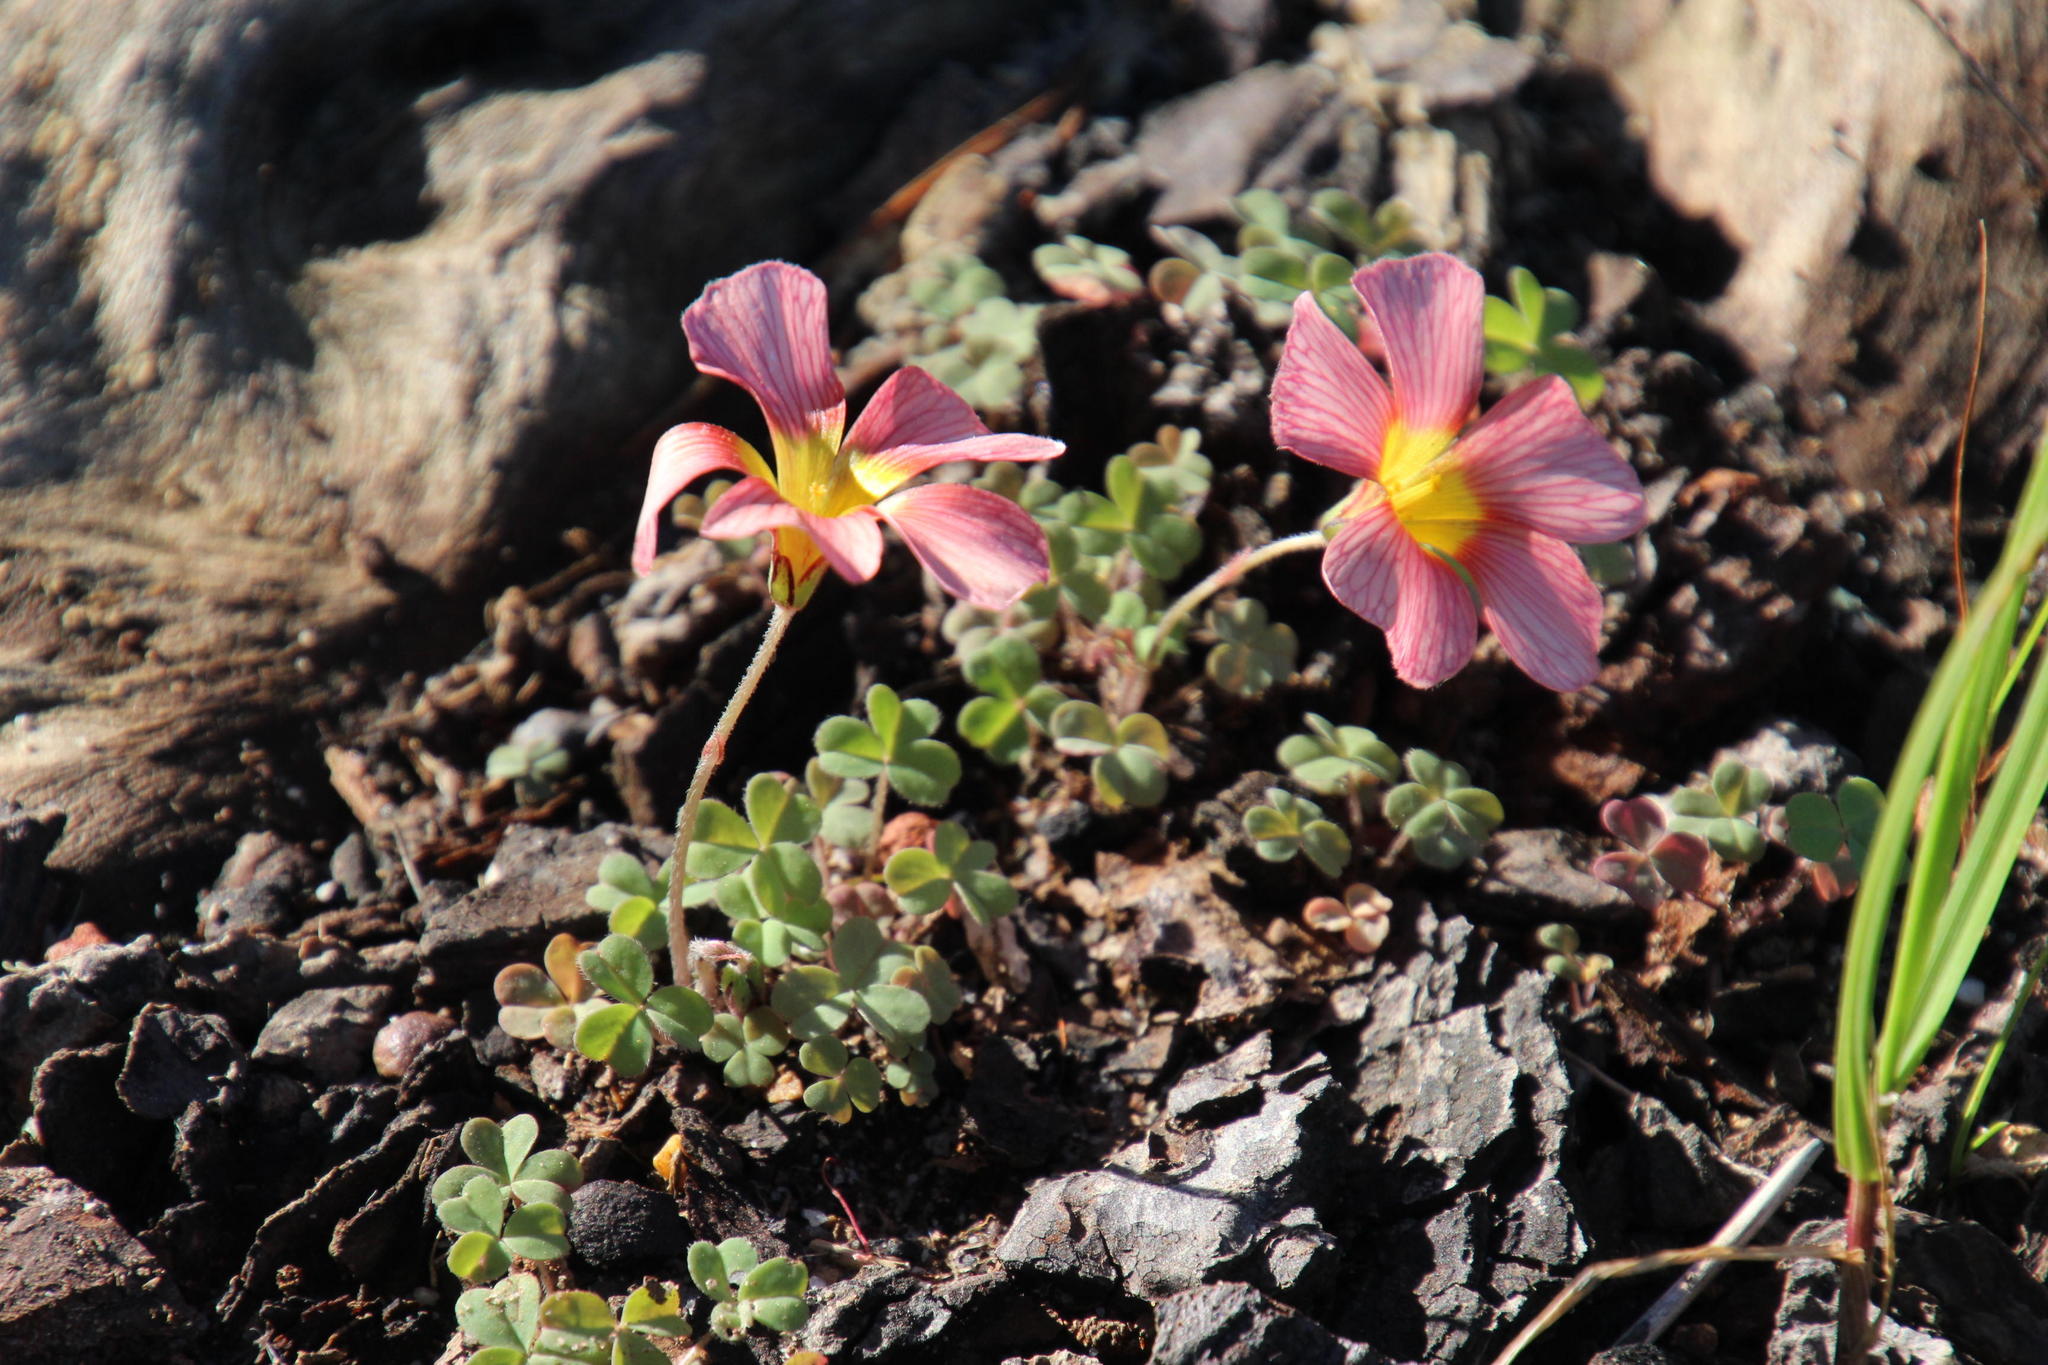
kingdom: Plantae
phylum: Tracheophyta
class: Magnoliopsida
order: Oxalidales
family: Oxalidaceae
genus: Oxalis
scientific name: Oxalis obtusa
